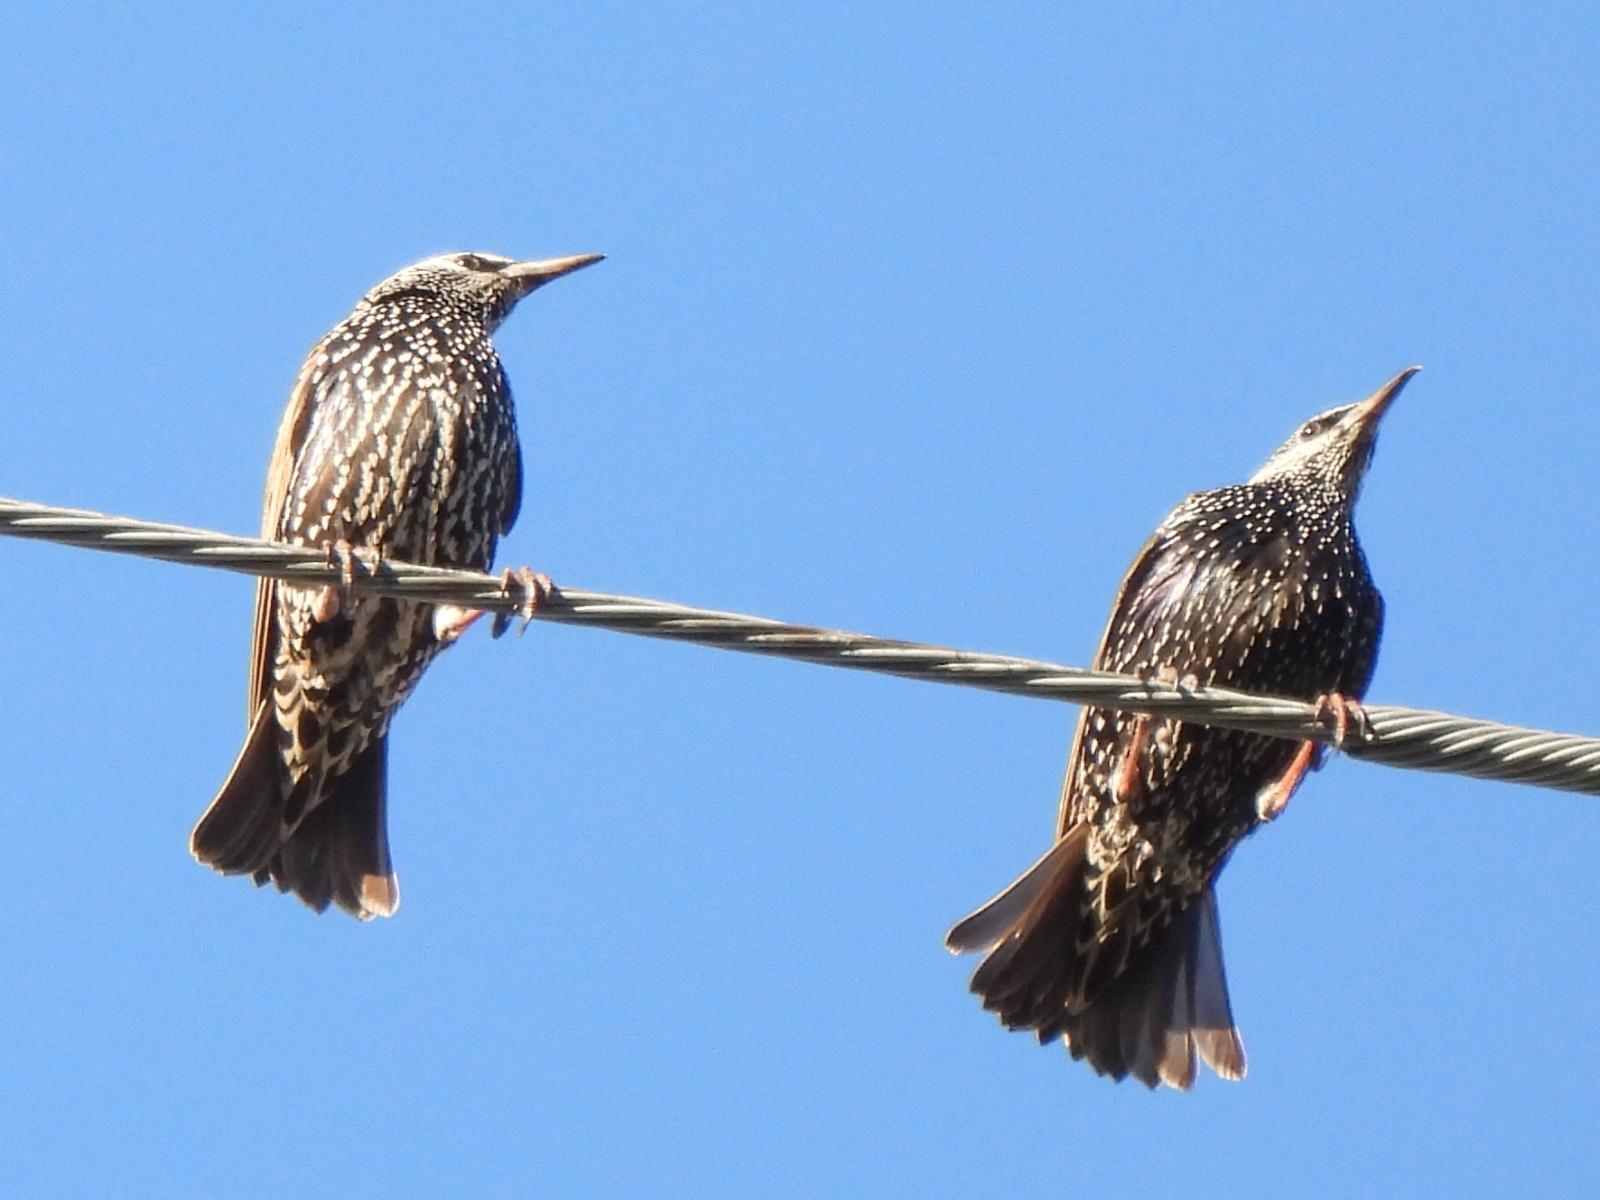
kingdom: Animalia
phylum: Chordata
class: Aves
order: Passeriformes
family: Sturnidae
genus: Sturnus
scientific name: Sturnus vulgaris
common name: Common starling
